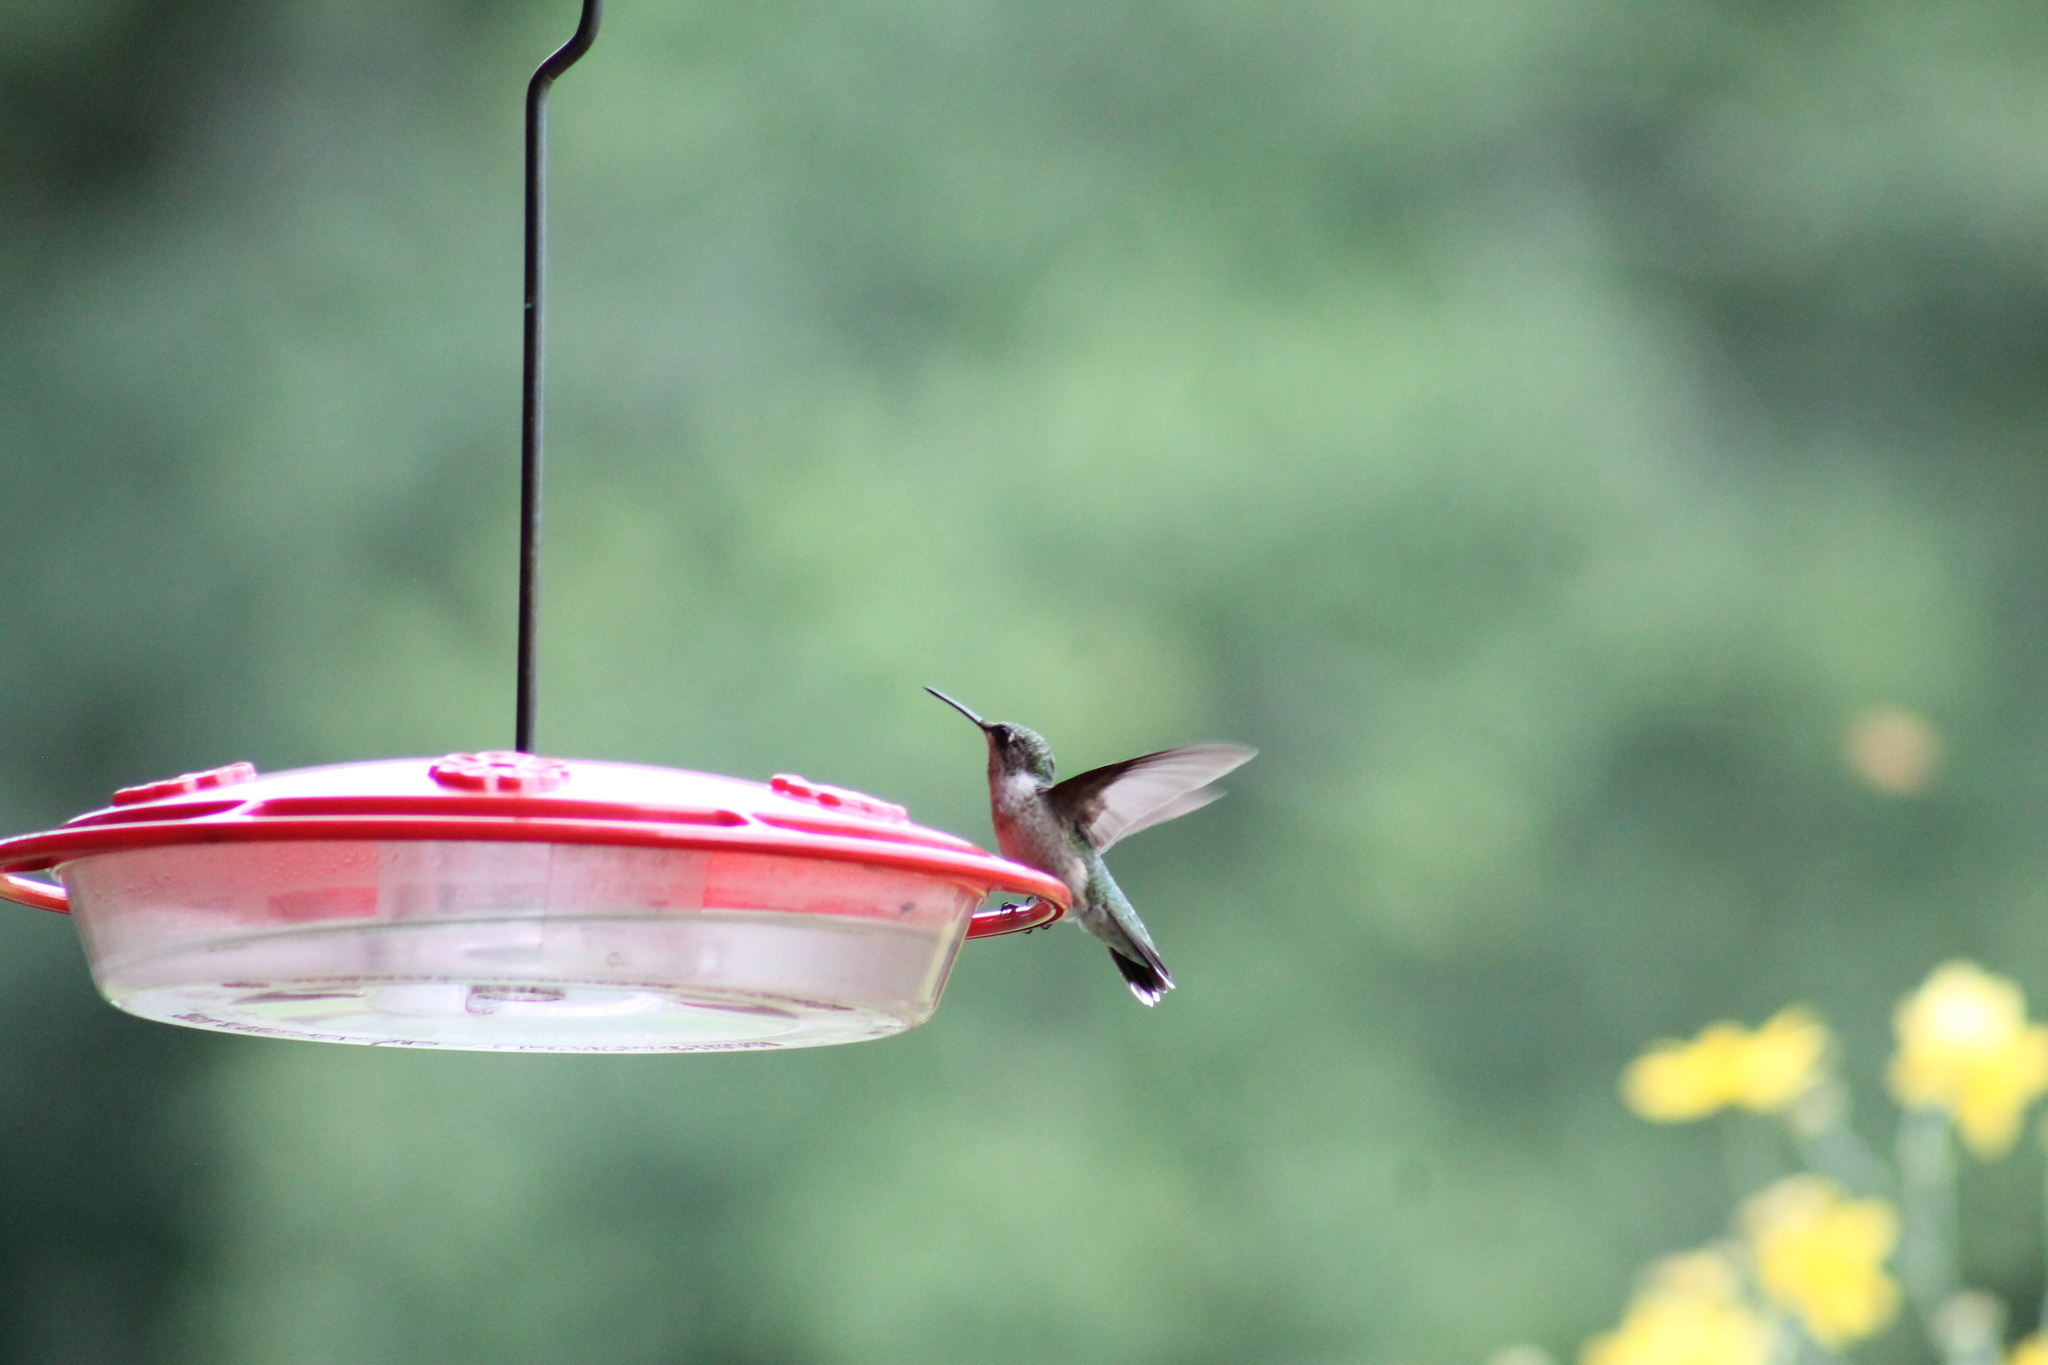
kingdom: Animalia
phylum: Chordata
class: Aves
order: Apodiformes
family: Trochilidae
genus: Archilochus
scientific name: Archilochus colubris
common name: Ruby-throated hummingbird
